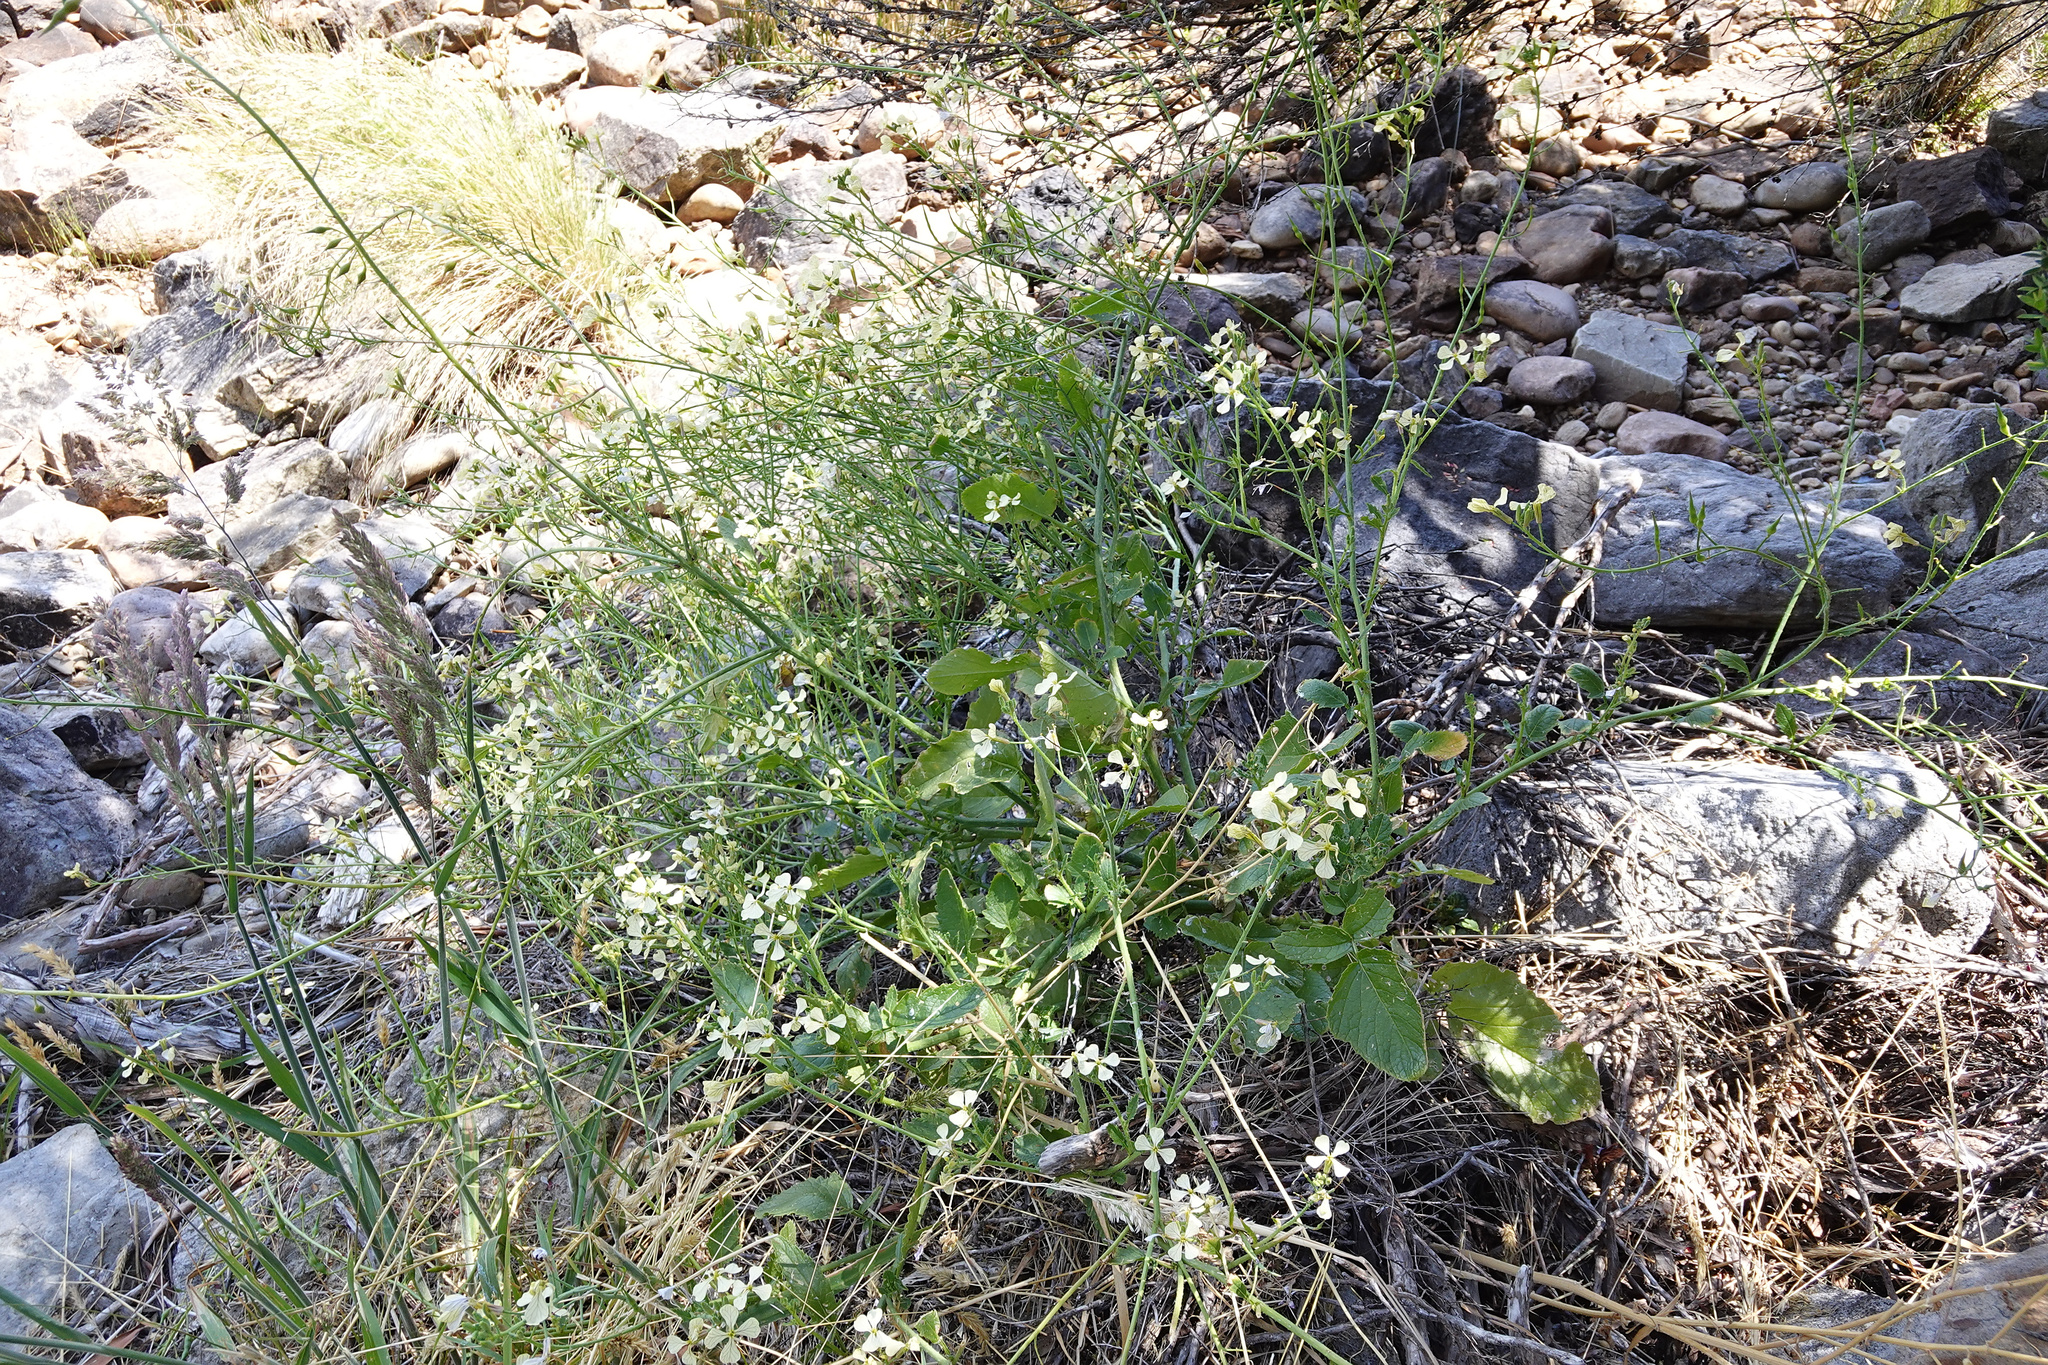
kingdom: Plantae
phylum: Tracheophyta
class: Magnoliopsida
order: Brassicales
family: Brassicaceae
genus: Raphanus
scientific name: Raphanus raphanistrum
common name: Wild radish
